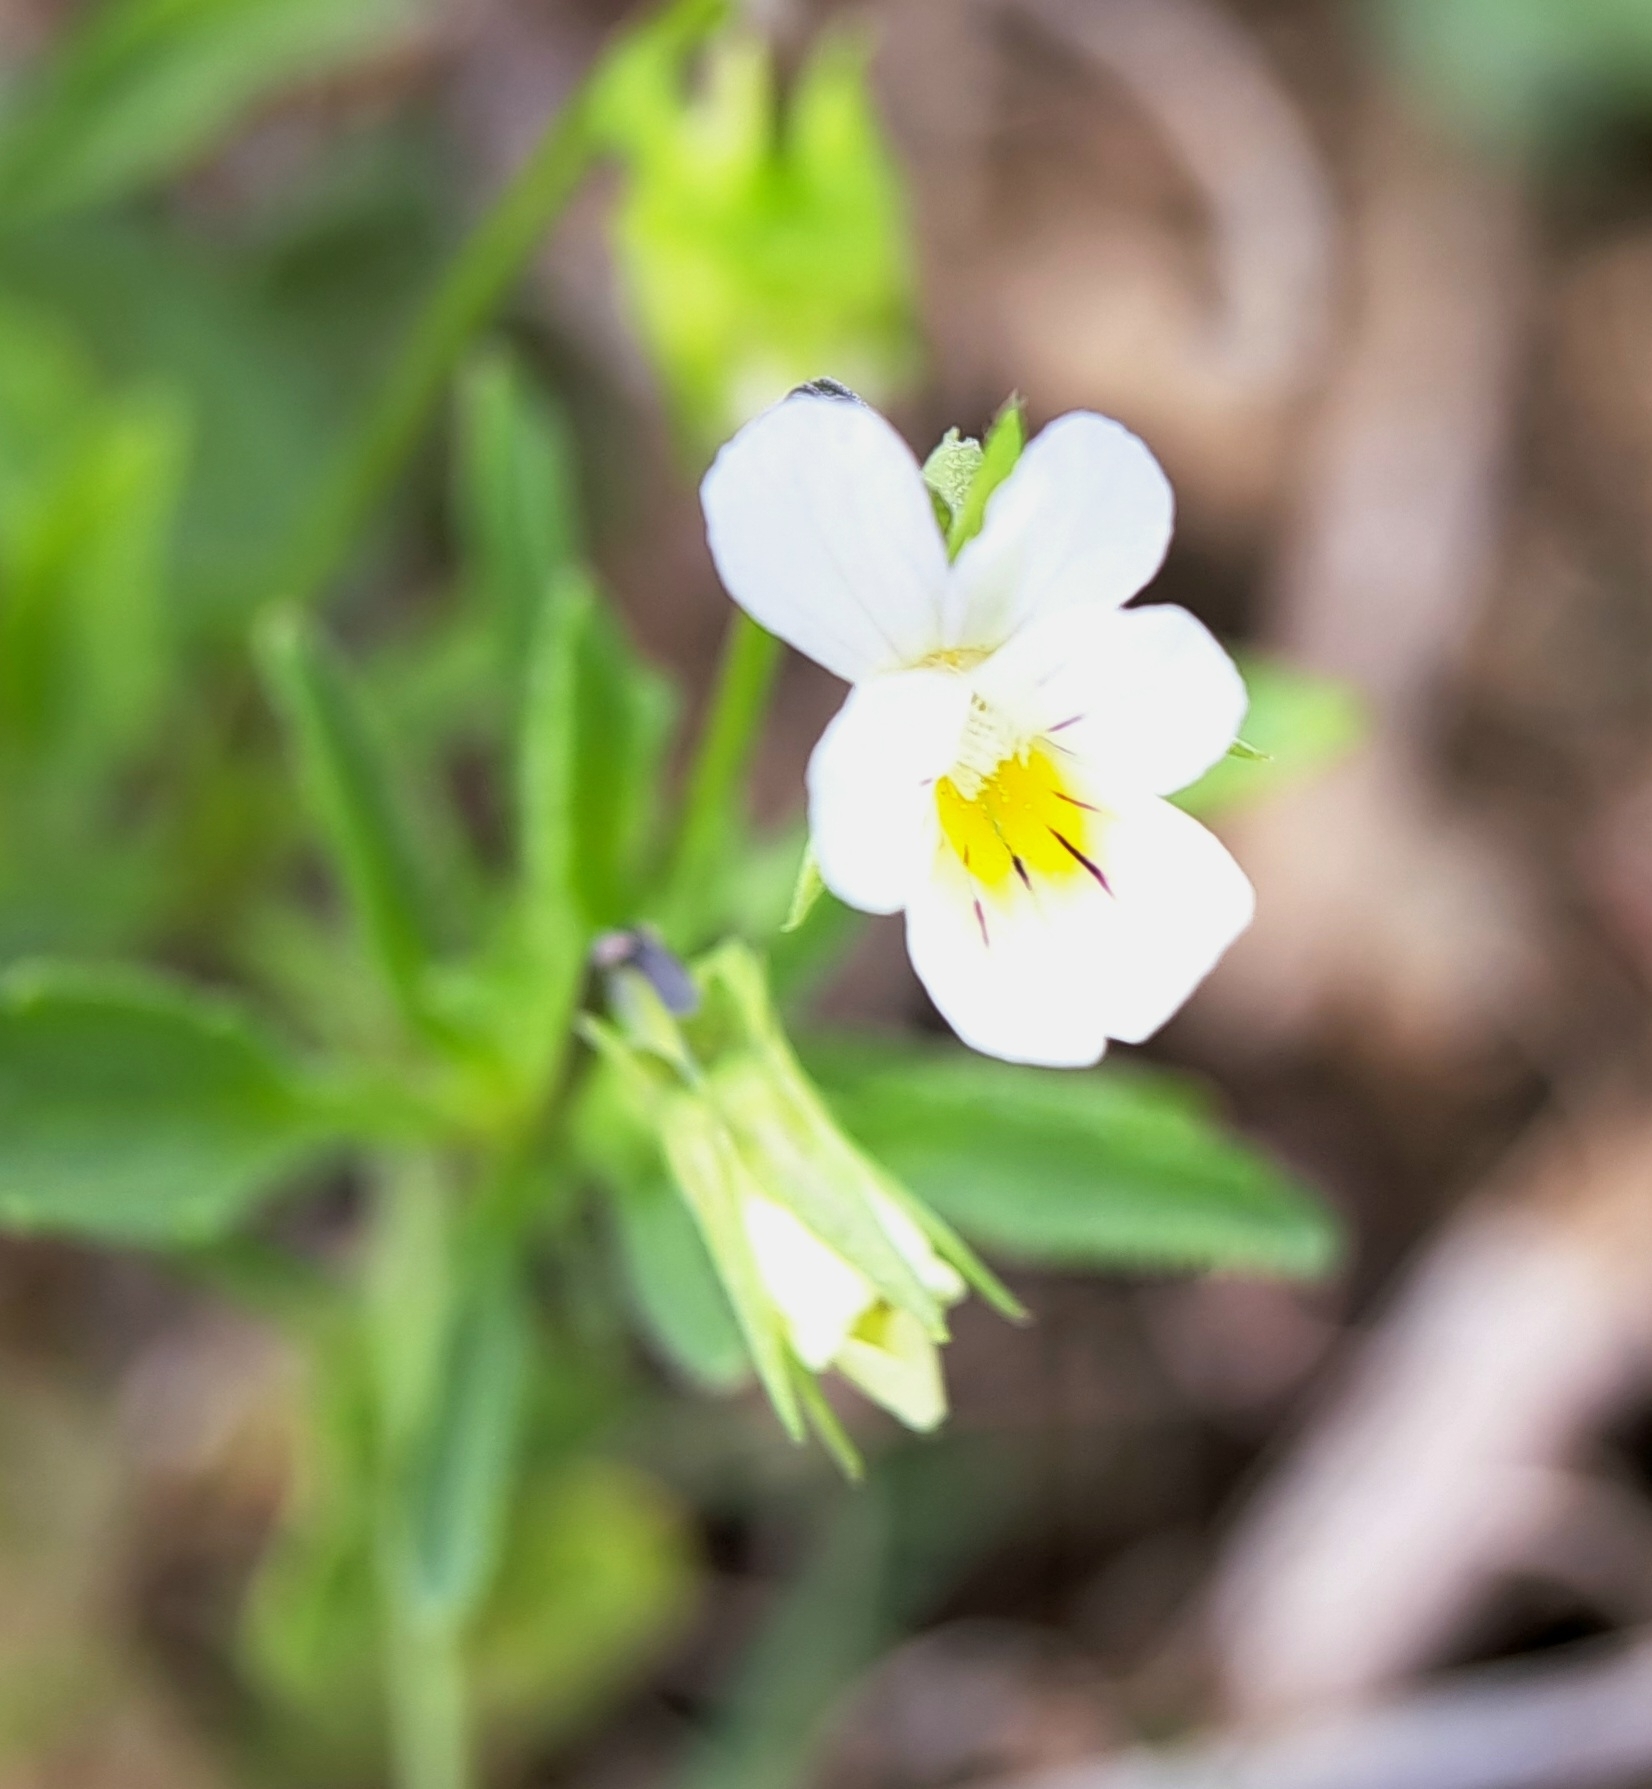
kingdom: Plantae
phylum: Tracheophyta
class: Magnoliopsida
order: Malpighiales
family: Violaceae
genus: Viola
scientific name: Viola arvensis
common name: Field pansy
